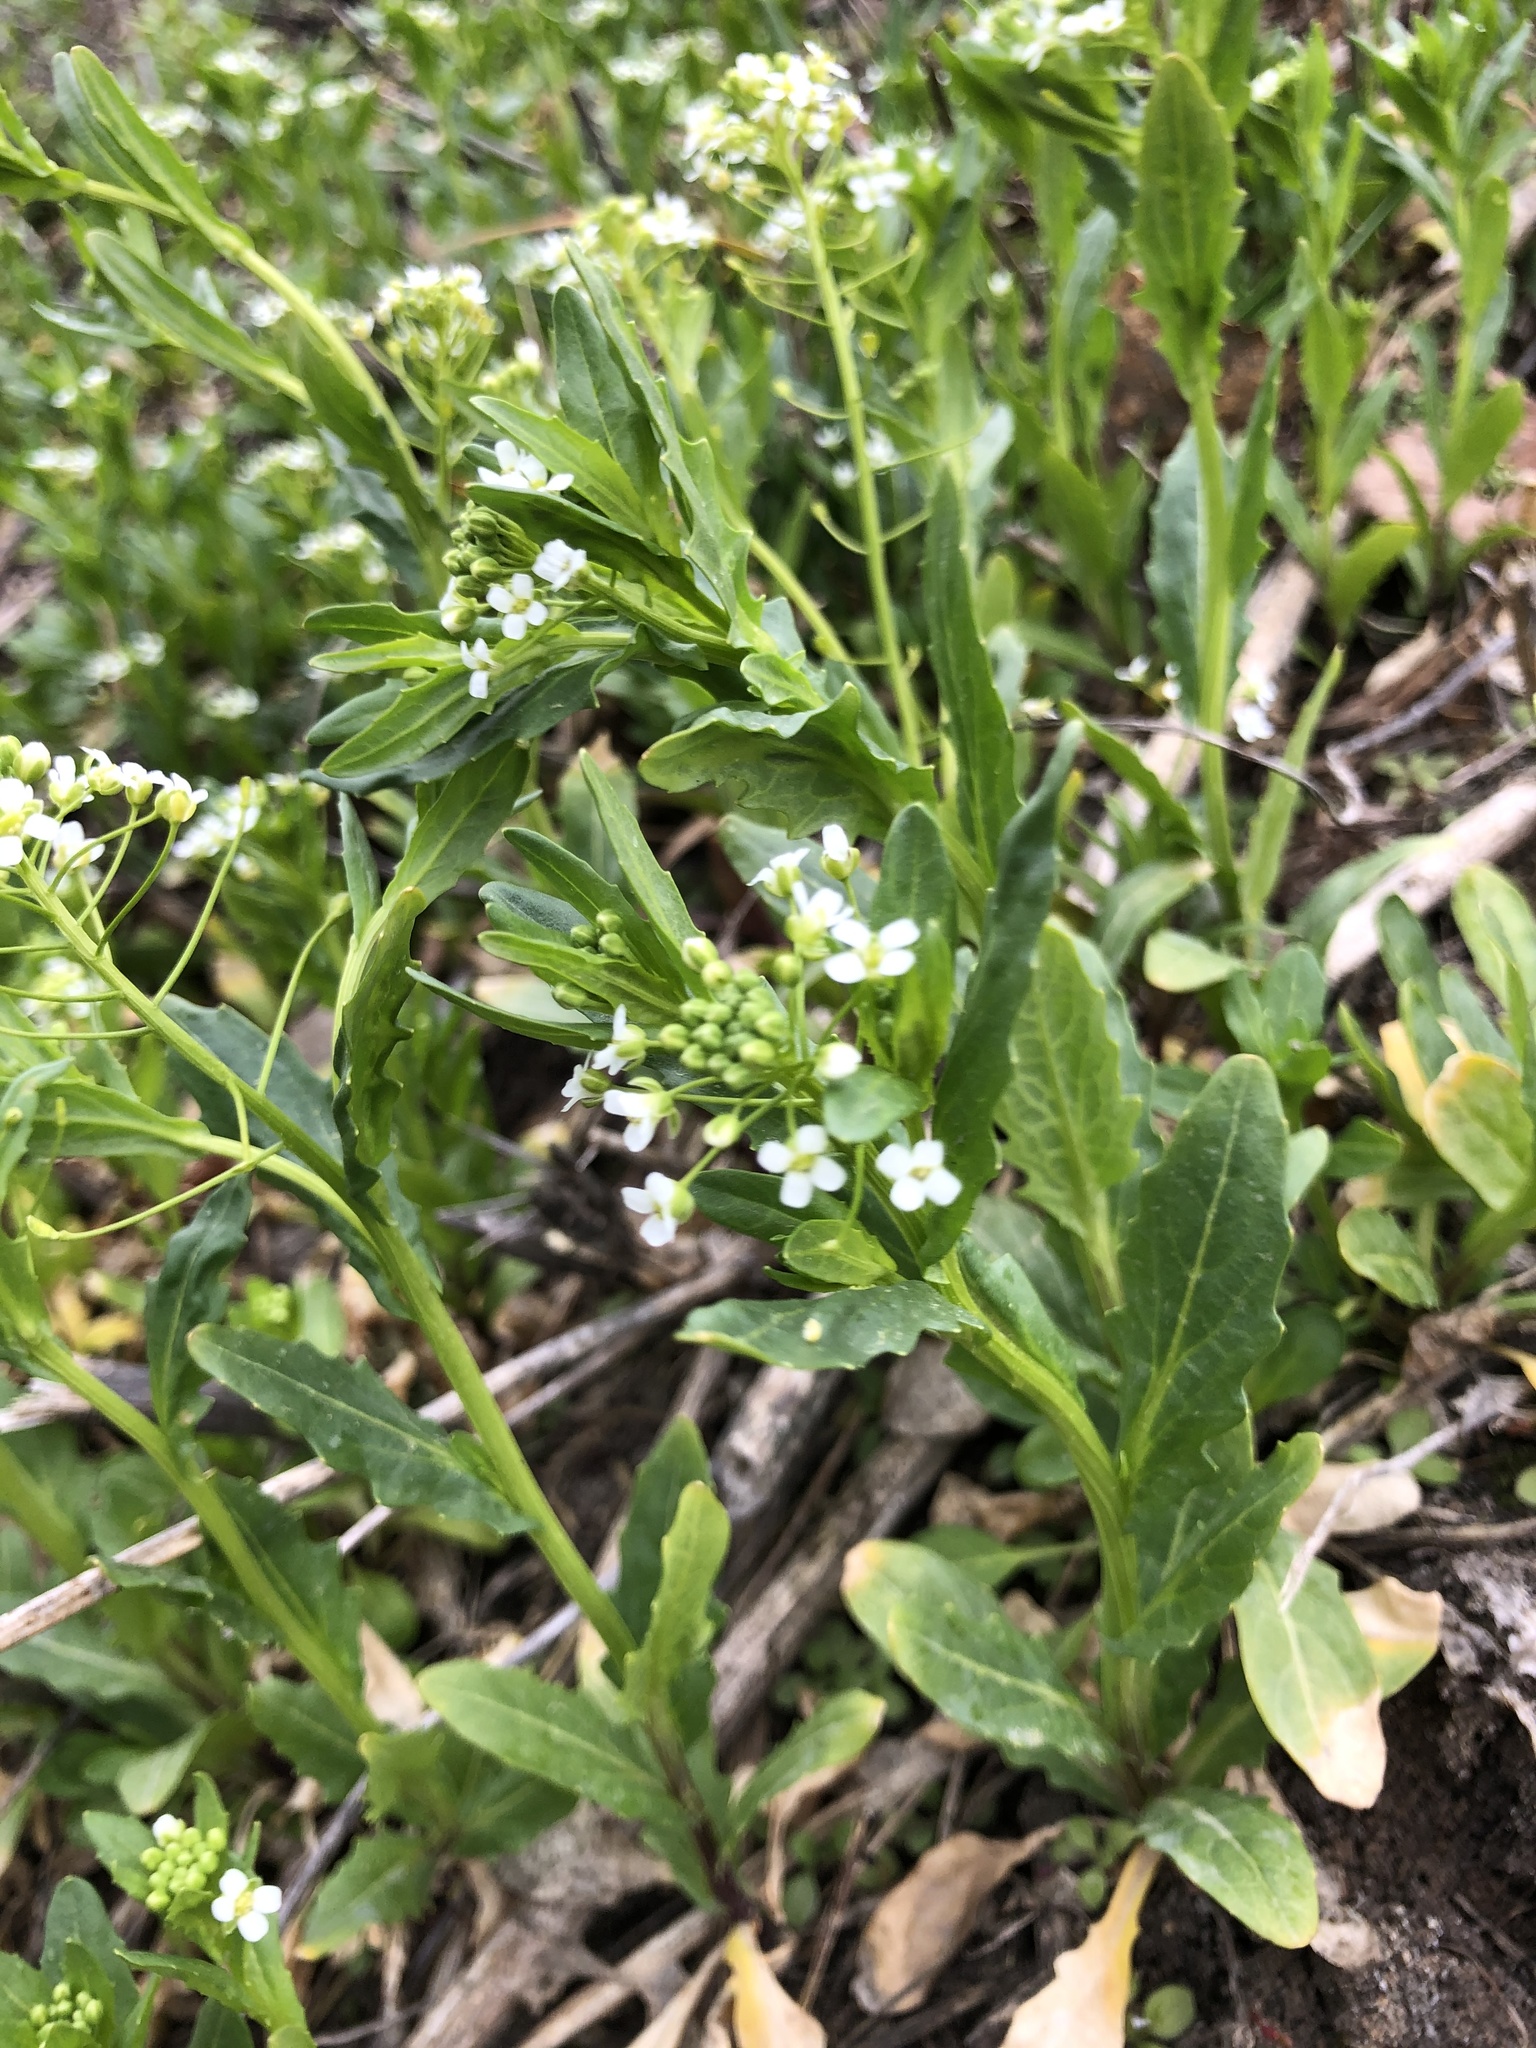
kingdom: Plantae
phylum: Tracheophyta
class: Magnoliopsida
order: Brassicales
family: Brassicaceae
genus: Thlaspi
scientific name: Thlaspi arvense
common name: Field pennycress
